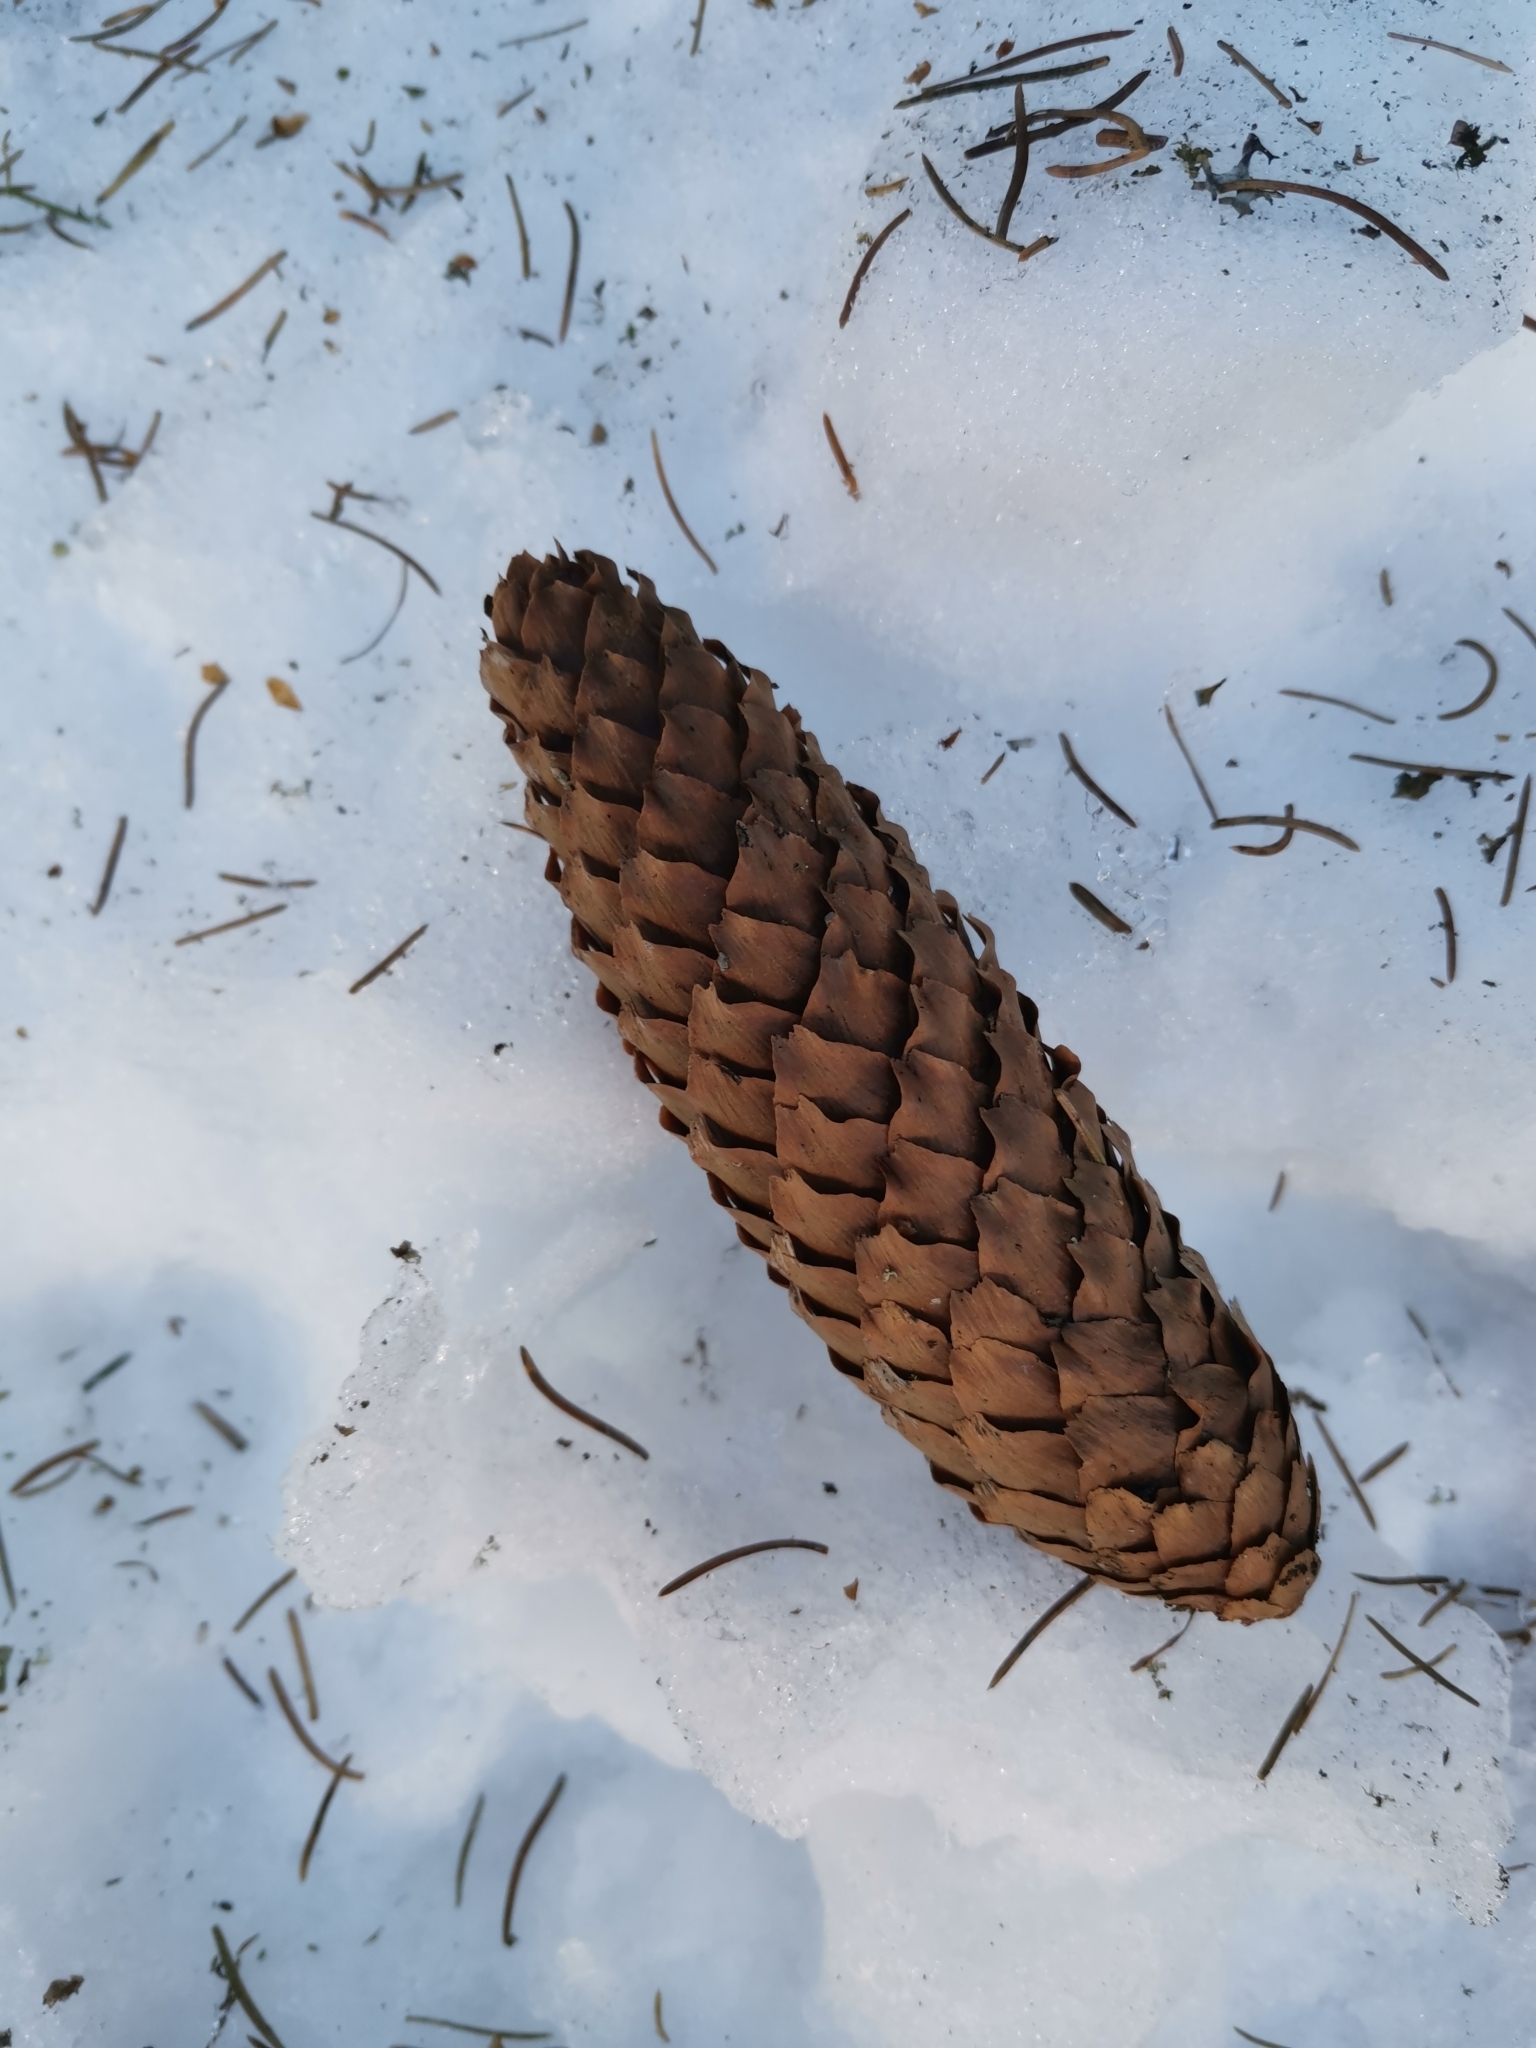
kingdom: Plantae
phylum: Tracheophyta
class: Pinopsida
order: Pinales
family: Pinaceae
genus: Picea
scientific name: Picea abies
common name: Norway spruce
